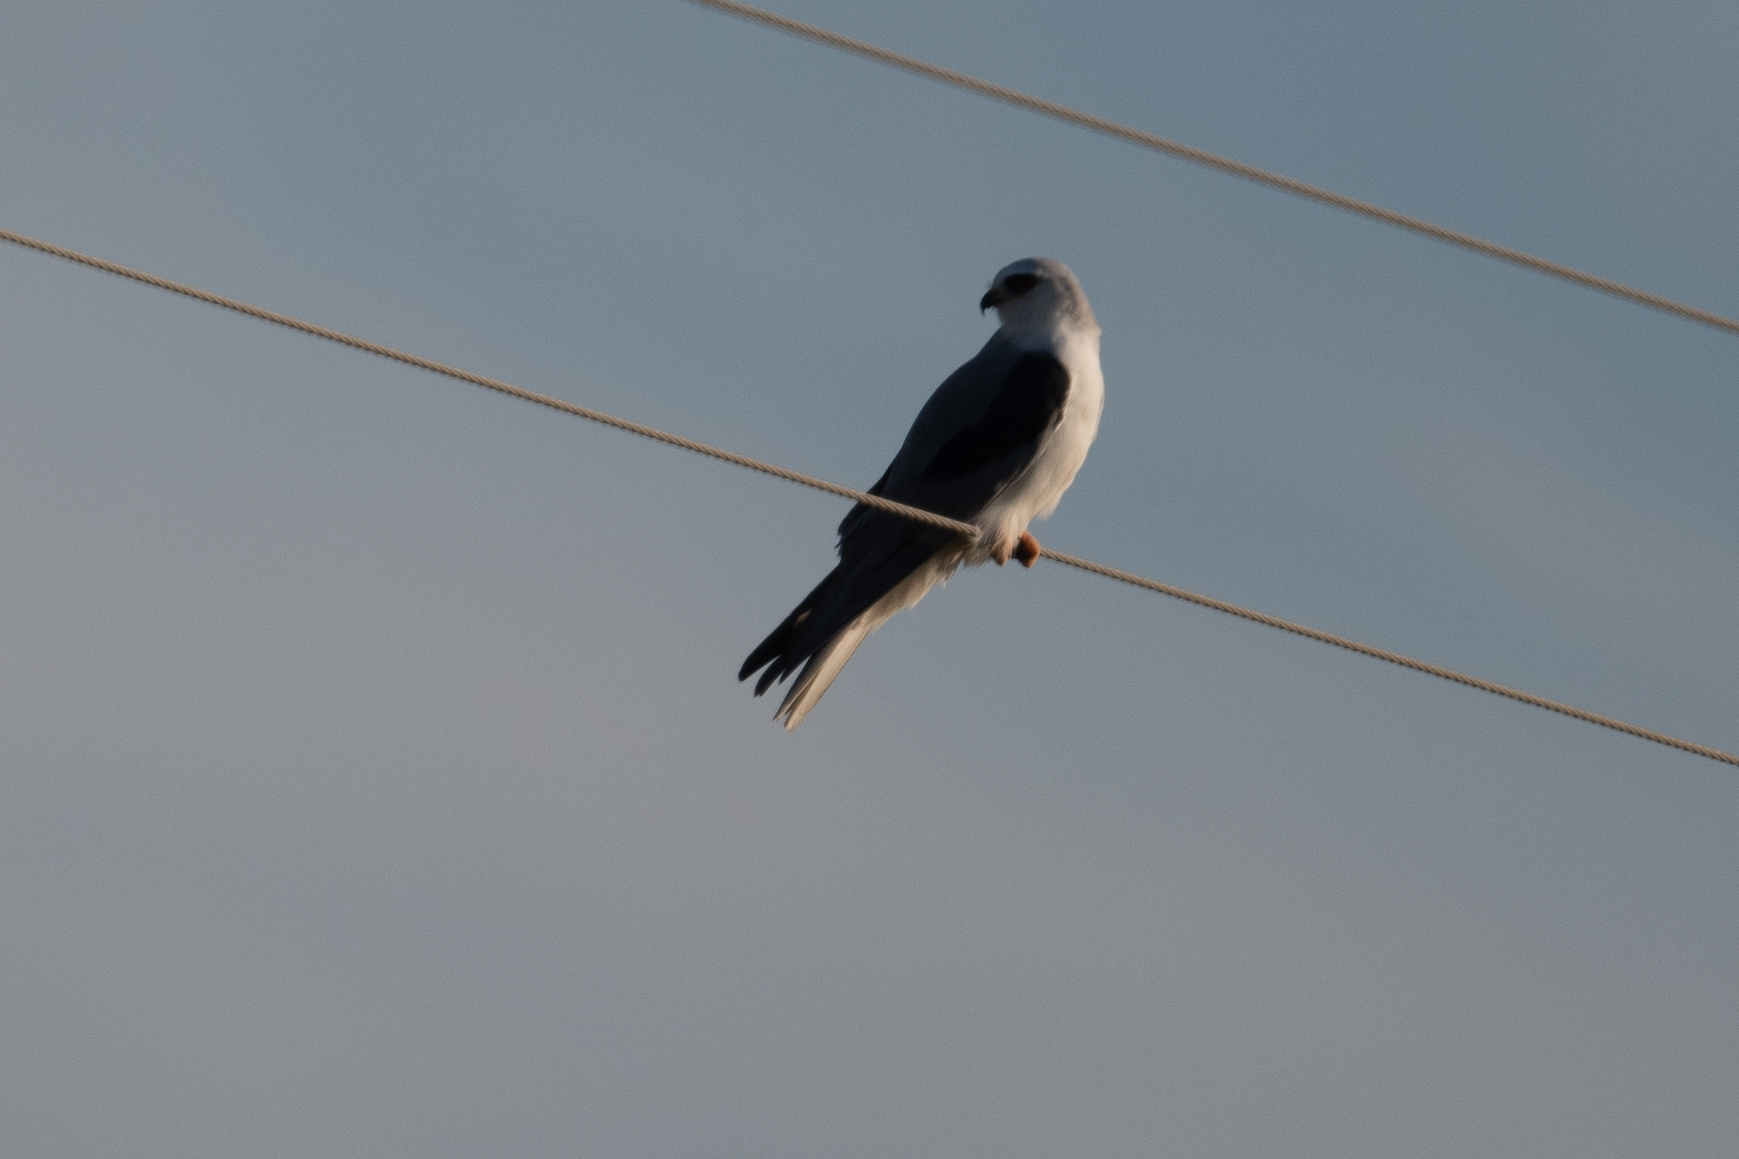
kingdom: Animalia
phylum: Chordata
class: Aves
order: Accipitriformes
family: Accipitridae
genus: Elanus
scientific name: Elanus leucurus
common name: White-tailed kite
